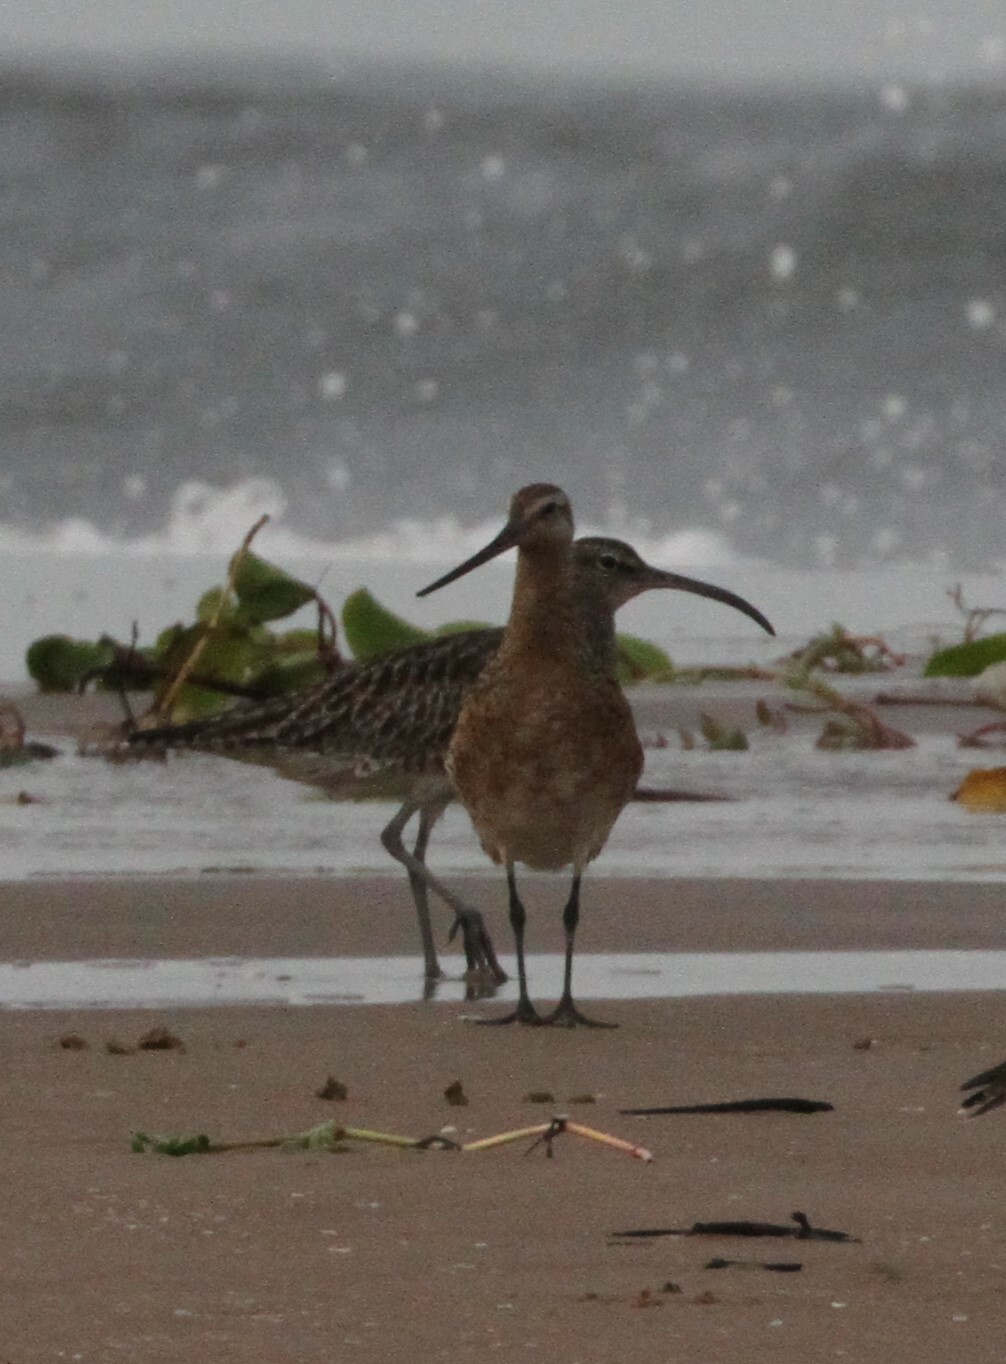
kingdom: Animalia
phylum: Chordata
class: Aves
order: Charadriiformes
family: Scolopacidae
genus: Limosa
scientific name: Limosa lapponica
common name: Bar-tailed godwit
